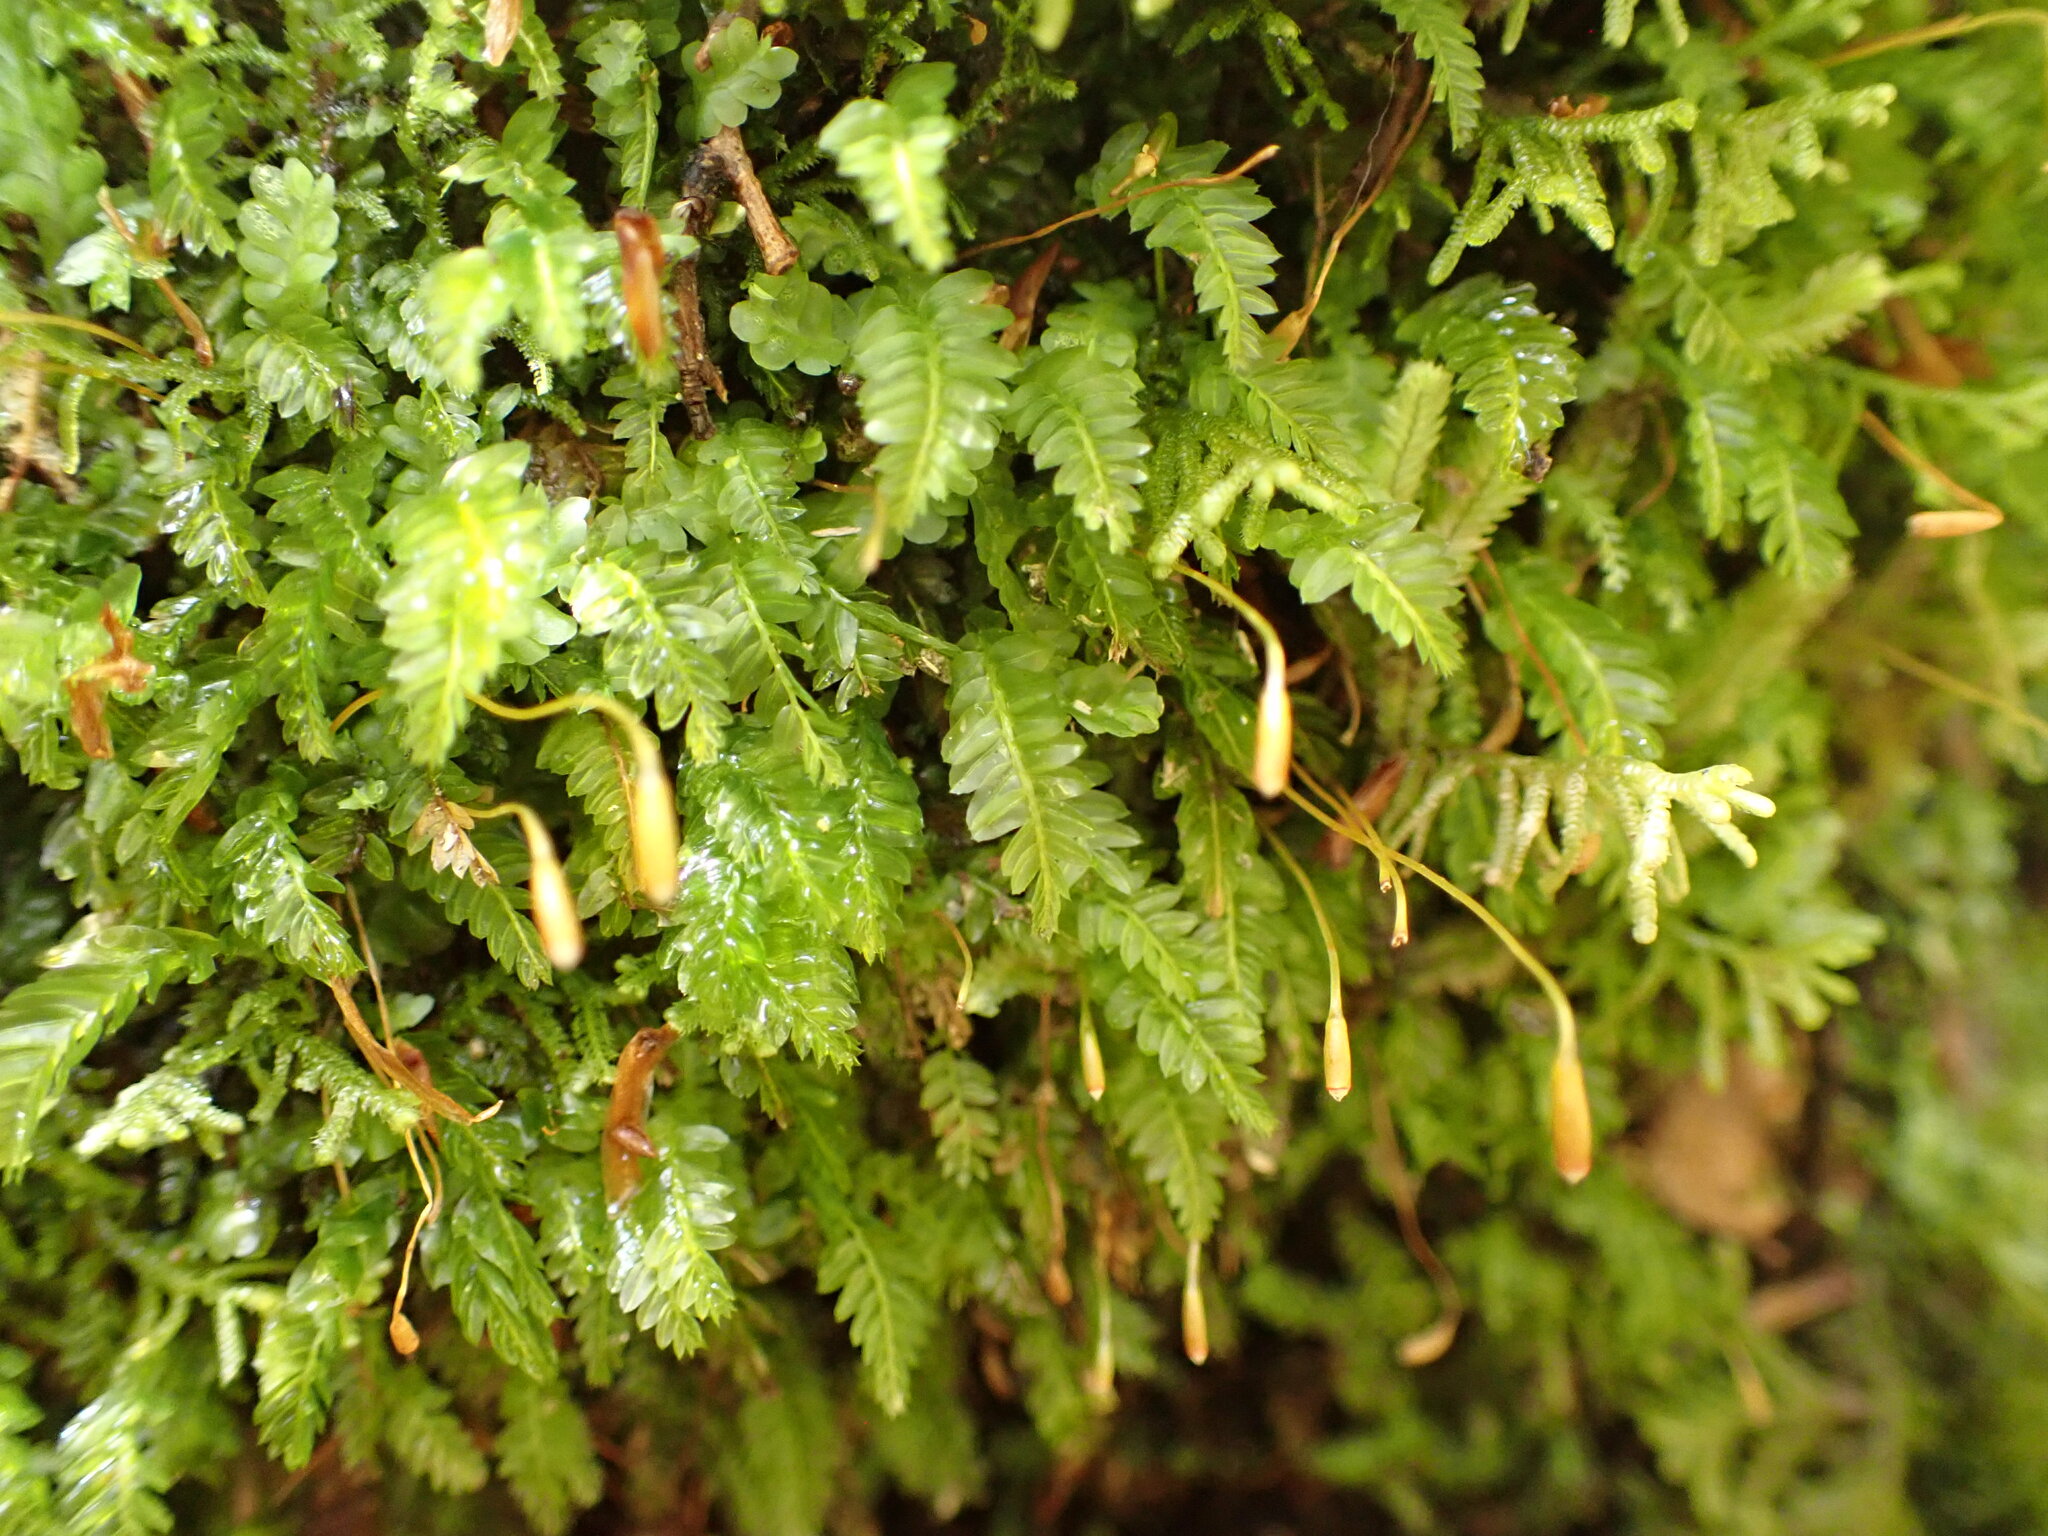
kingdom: Plantae
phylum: Bryophyta
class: Bryopsida
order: Rhizogoniales
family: Rhizogoniaceae
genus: Rhizogonium
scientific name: Rhizogonium distichum
